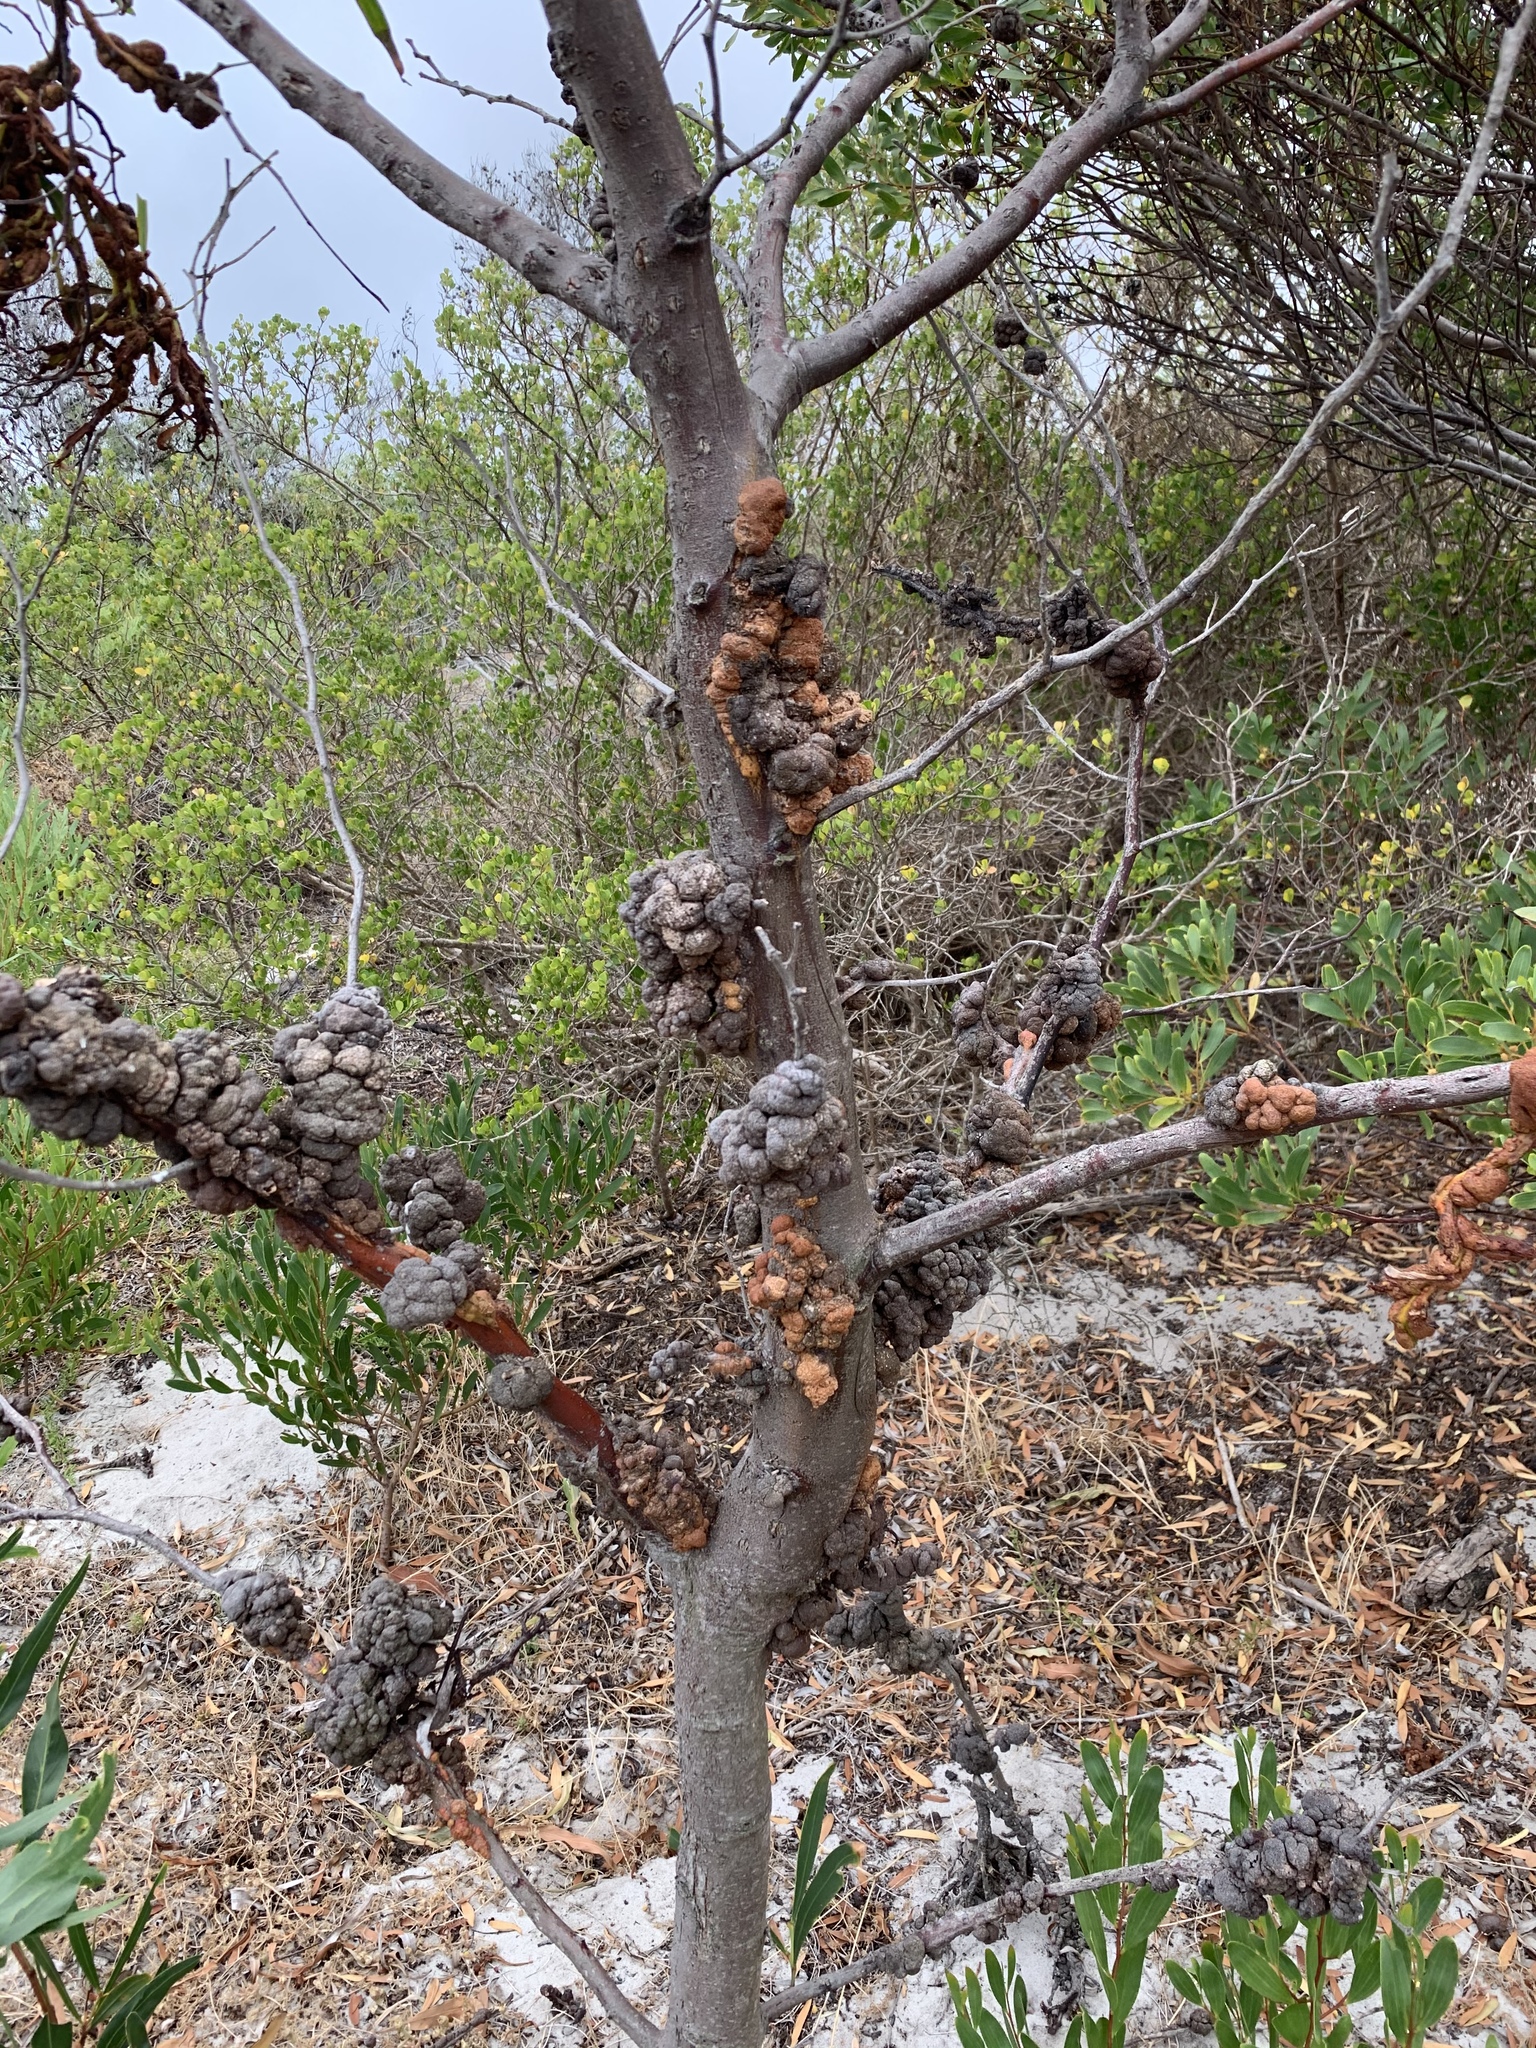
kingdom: Fungi
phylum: Basidiomycota
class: Pucciniomycetes
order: Pucciniales
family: Uromycladiaceae
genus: Uromycladium
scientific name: Uromycladium morrisii
